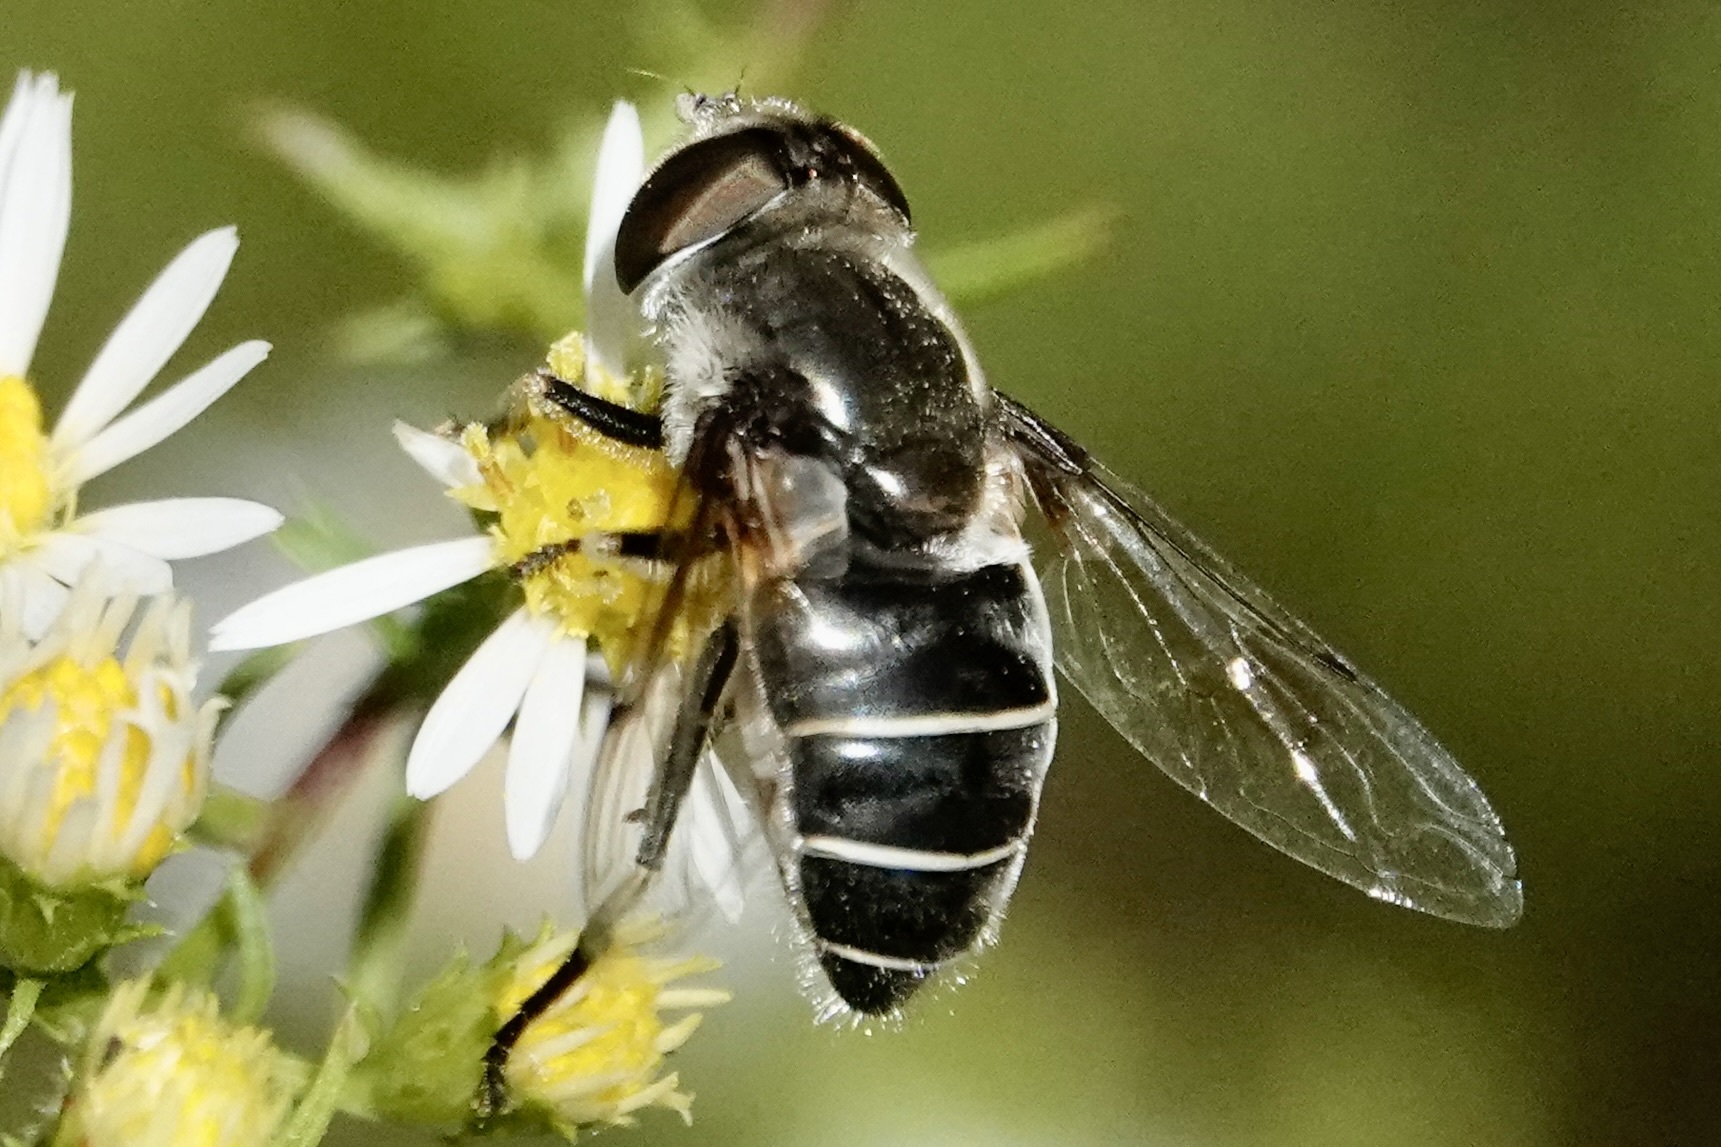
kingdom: Animalia
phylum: Arthropoda
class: Insecta
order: Diptera
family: Syrphidae
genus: Eristalis
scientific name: Eristalis dimidiata
